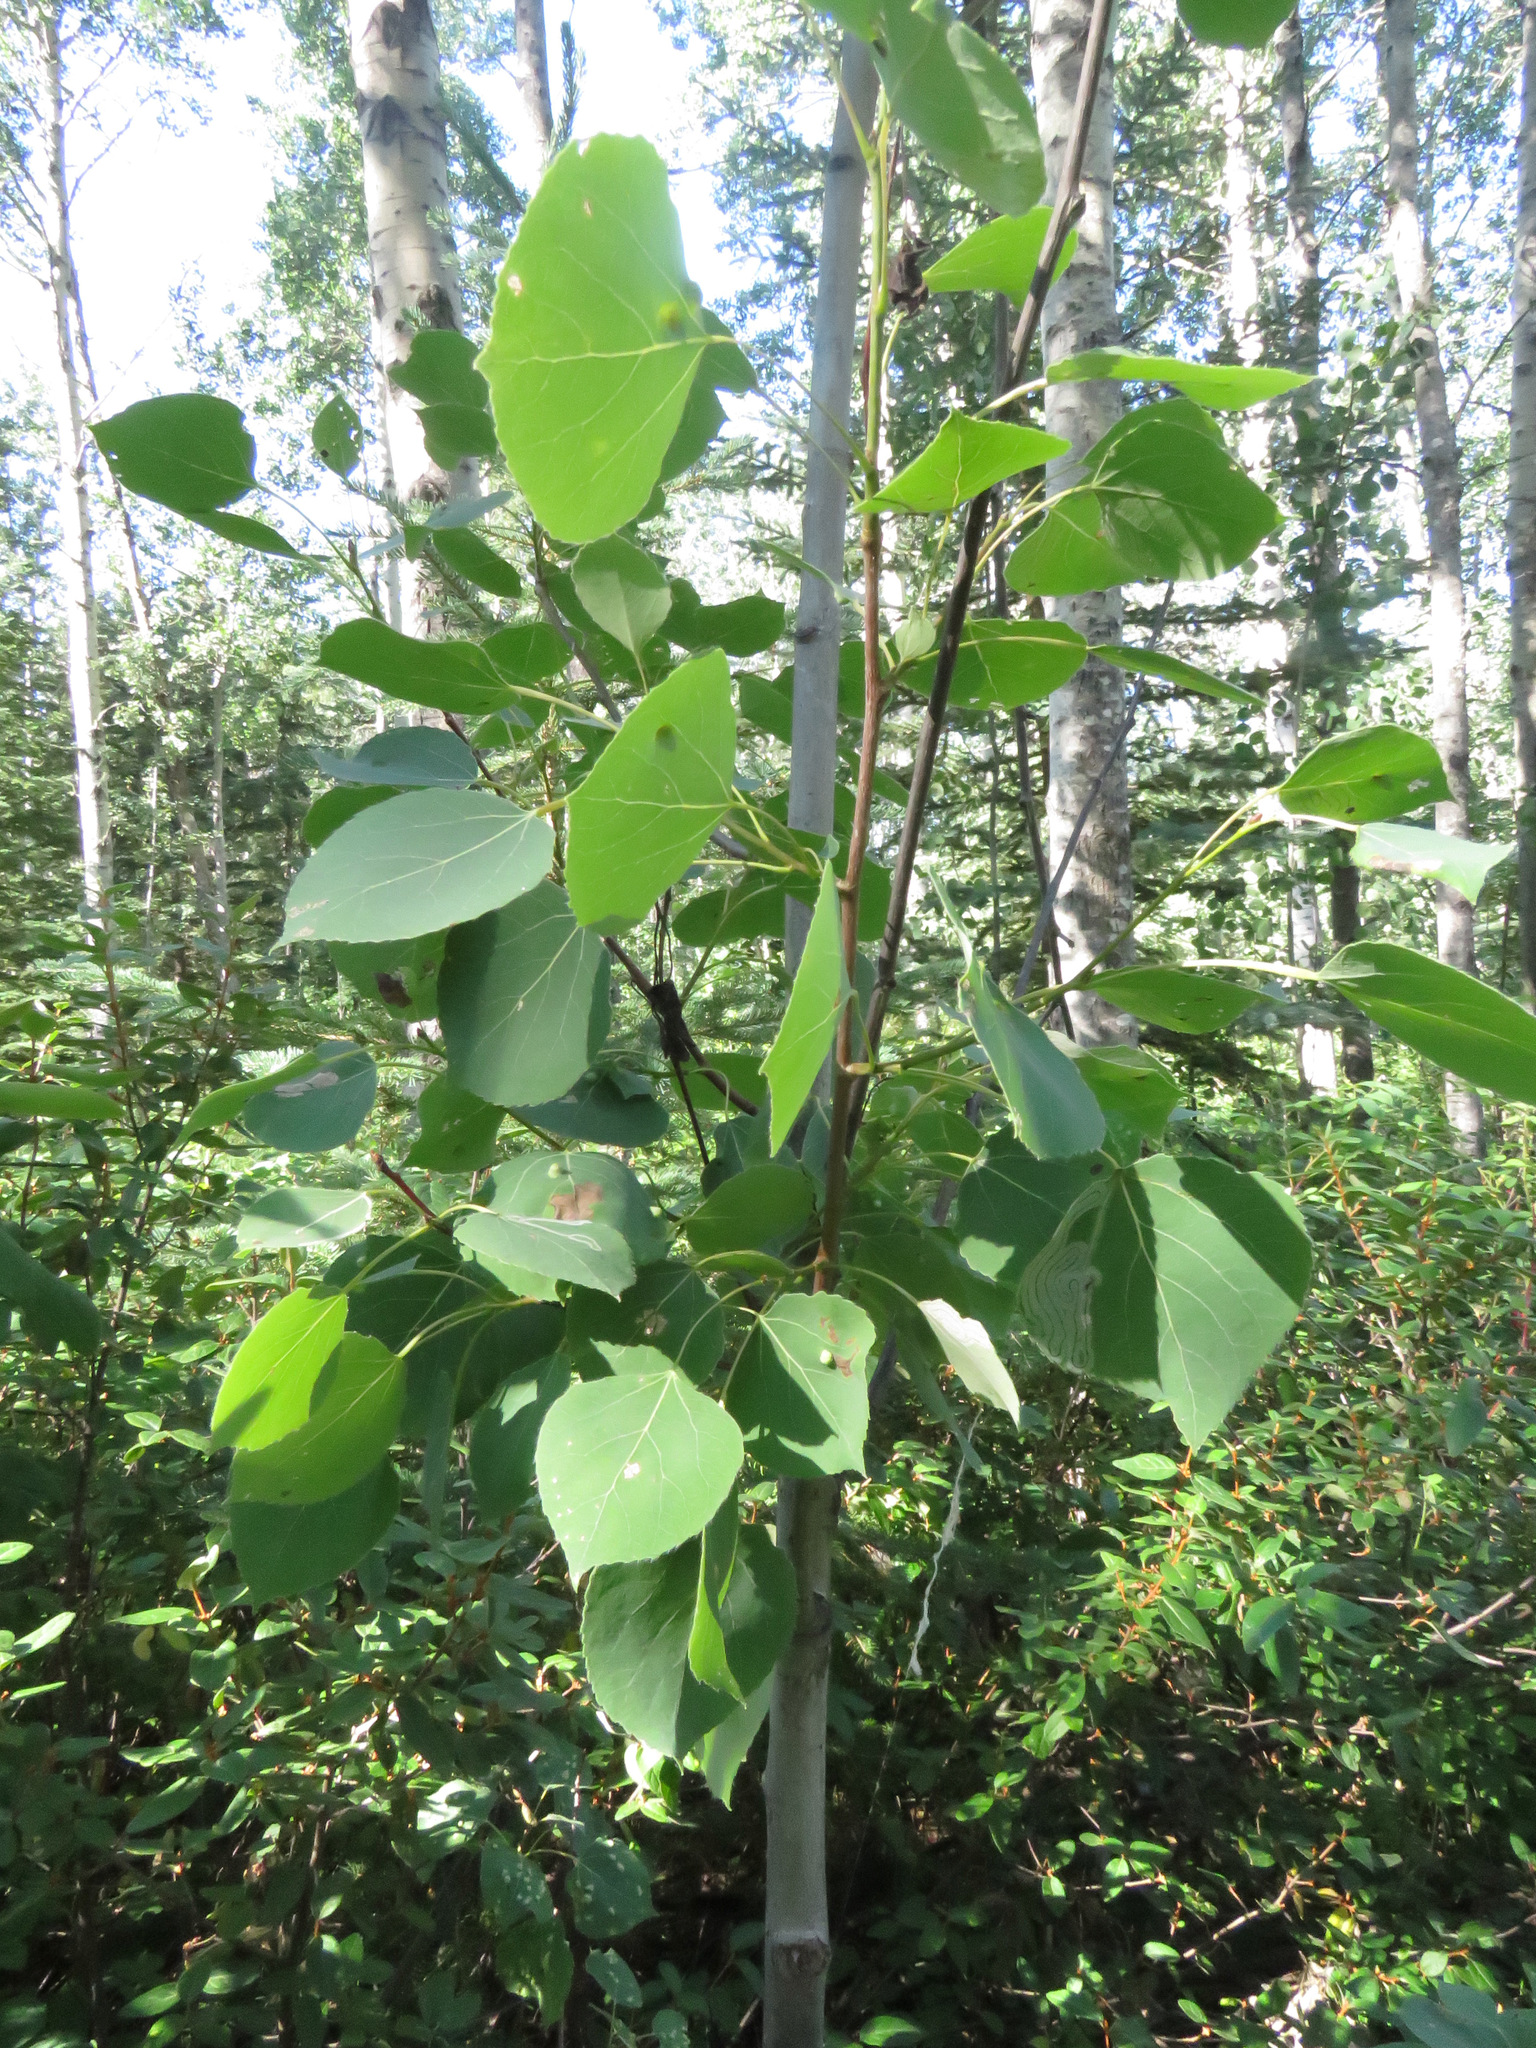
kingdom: Plantae
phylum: Tracheophyta
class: Magnoliopsida
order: Malpighiales
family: Salicaceae
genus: Populus
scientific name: Populus tremuloides
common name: Quaking aspen
